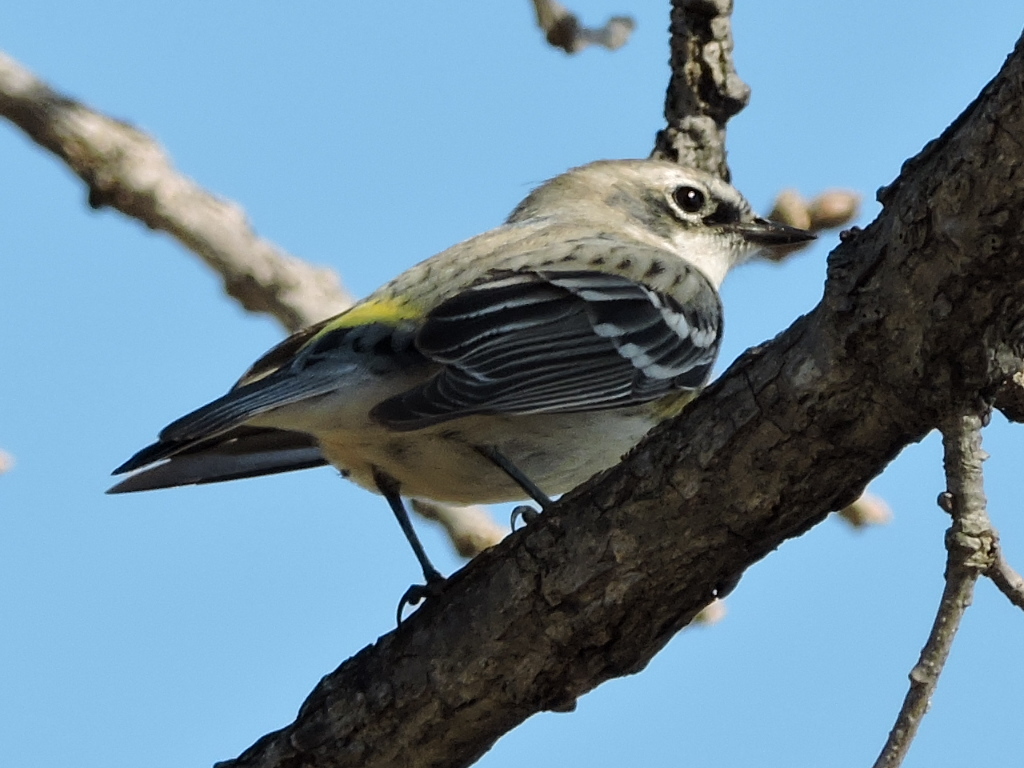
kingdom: Animalia
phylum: Chordata
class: Aves
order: Passeriformes
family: Parulidae
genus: Setophaga
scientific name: Setophaga coronata
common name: Myrtle warbler
